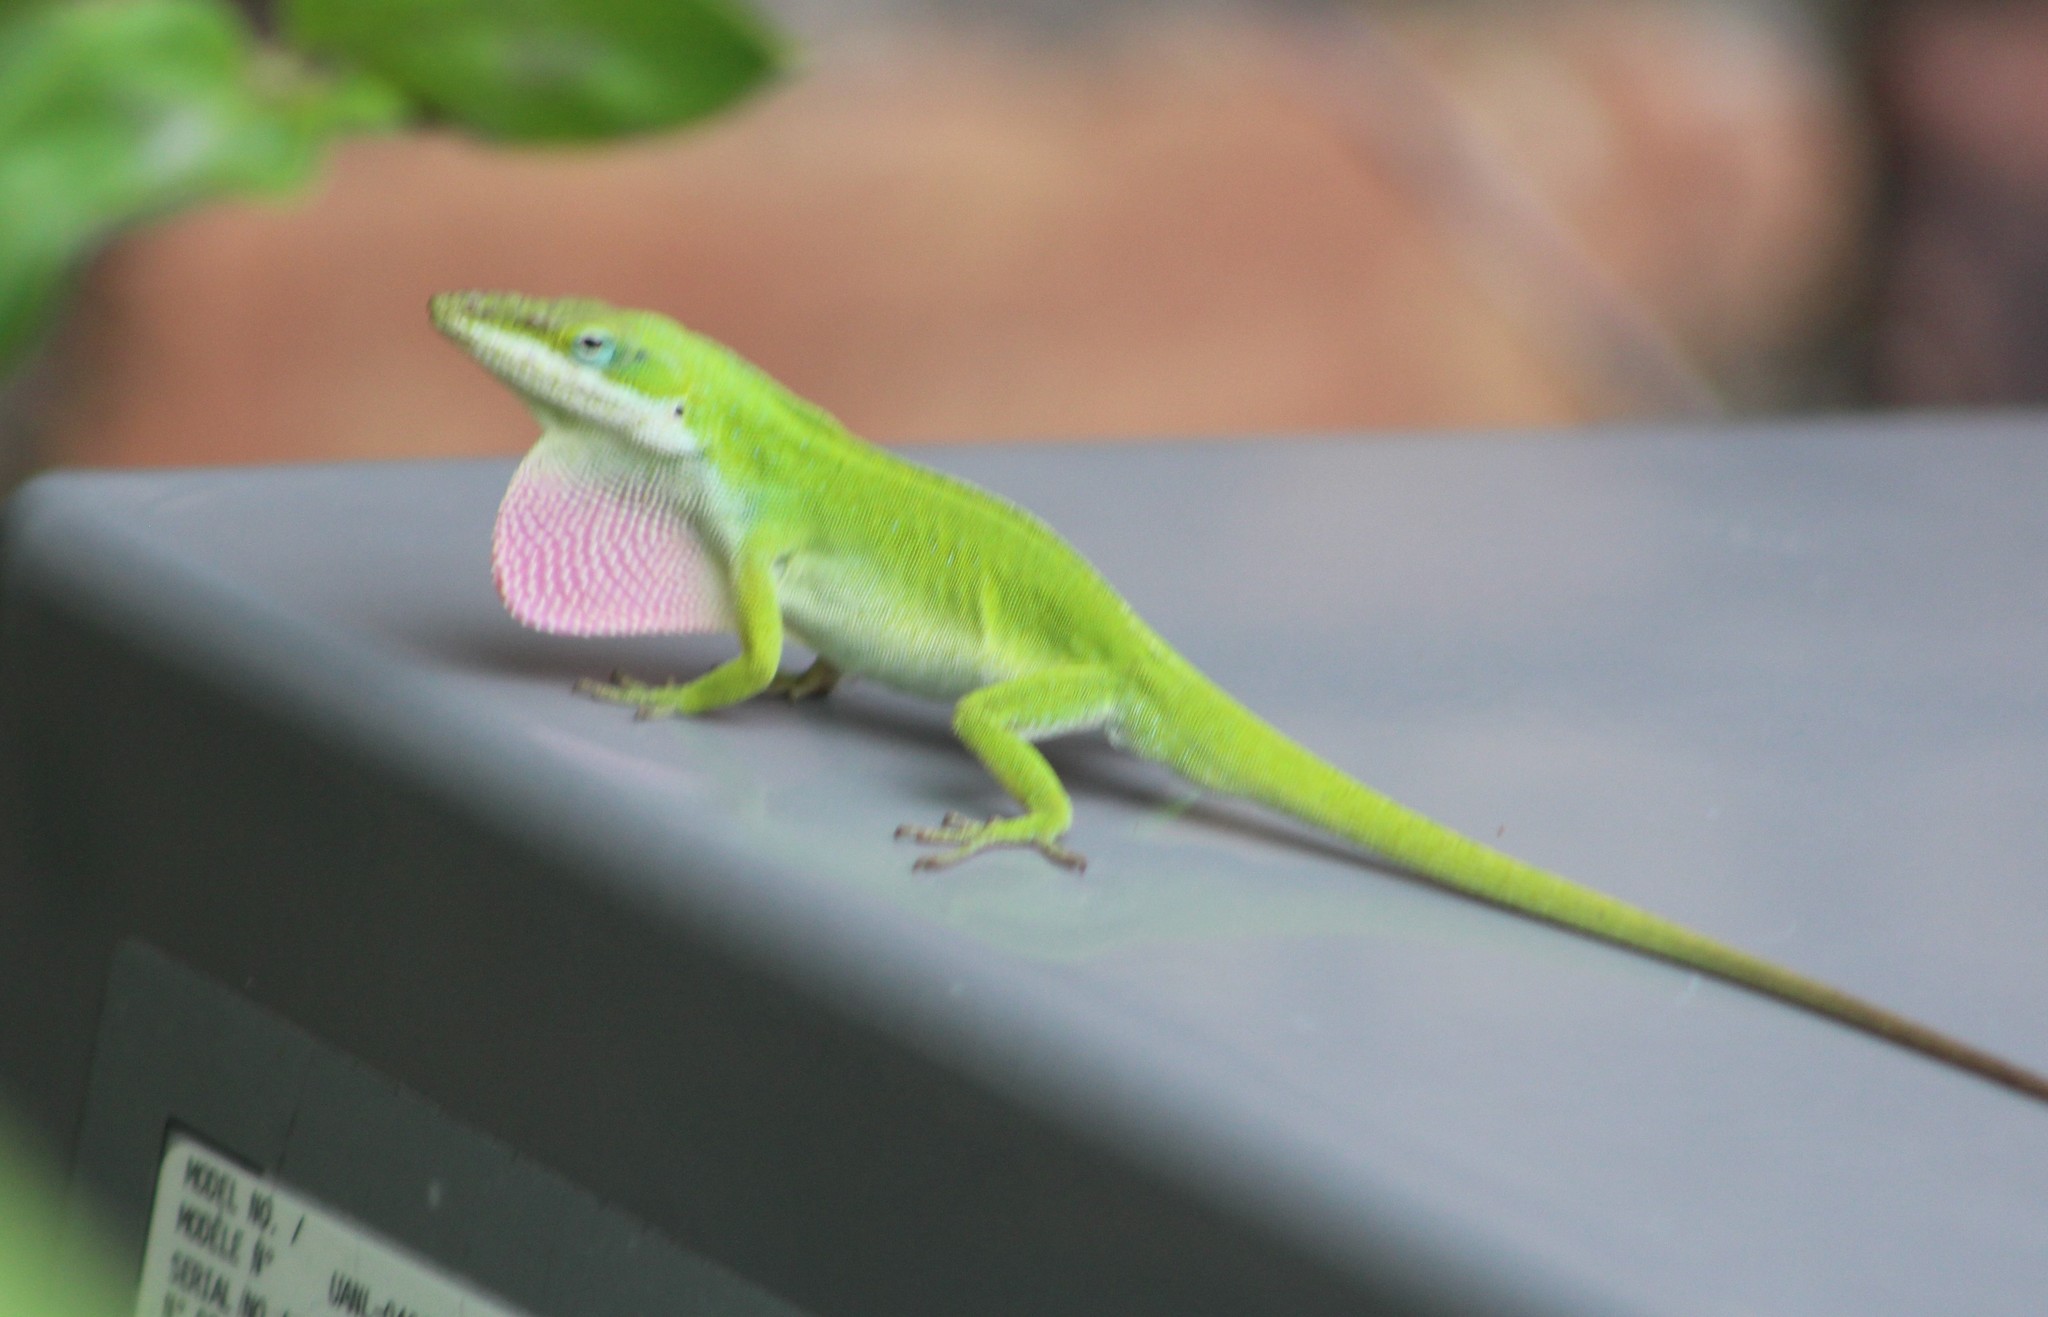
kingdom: Animalia
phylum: Chordata
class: Squamata
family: Dactyloidae
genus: Anolis
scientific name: Anolis carolinensis
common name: Green anole
